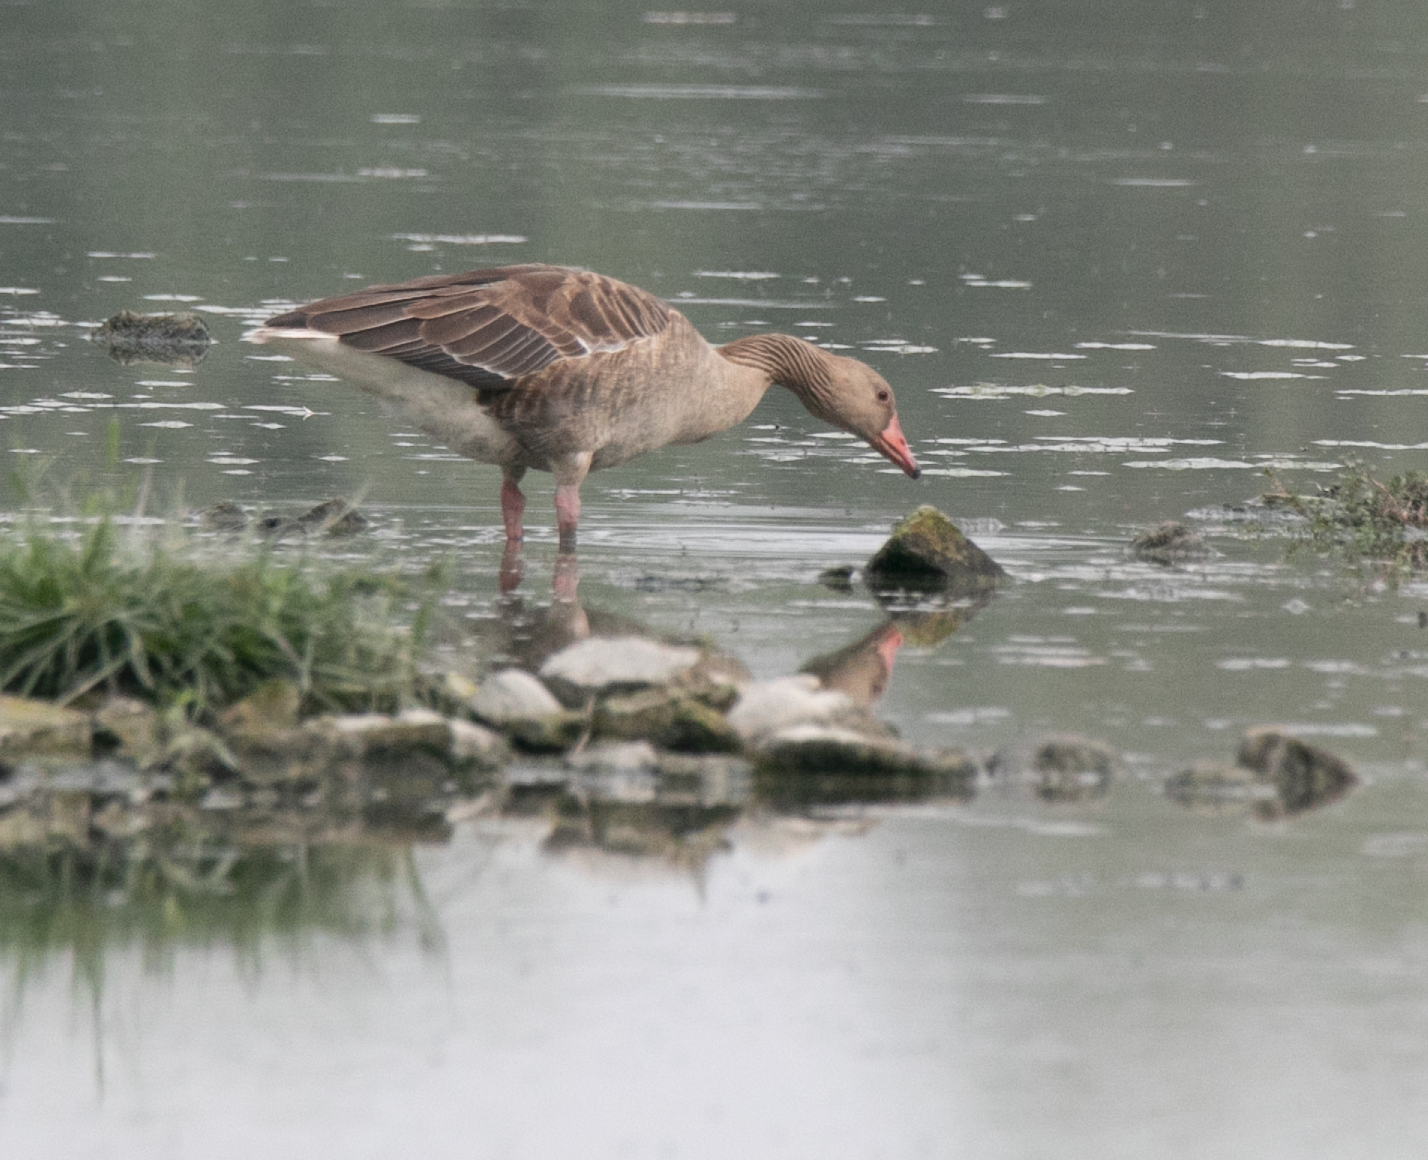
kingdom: Animalia
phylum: Chordata
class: Aves
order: Anseriformes
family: Anatidae
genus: Anser
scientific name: Anser anser
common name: Greylag goose
